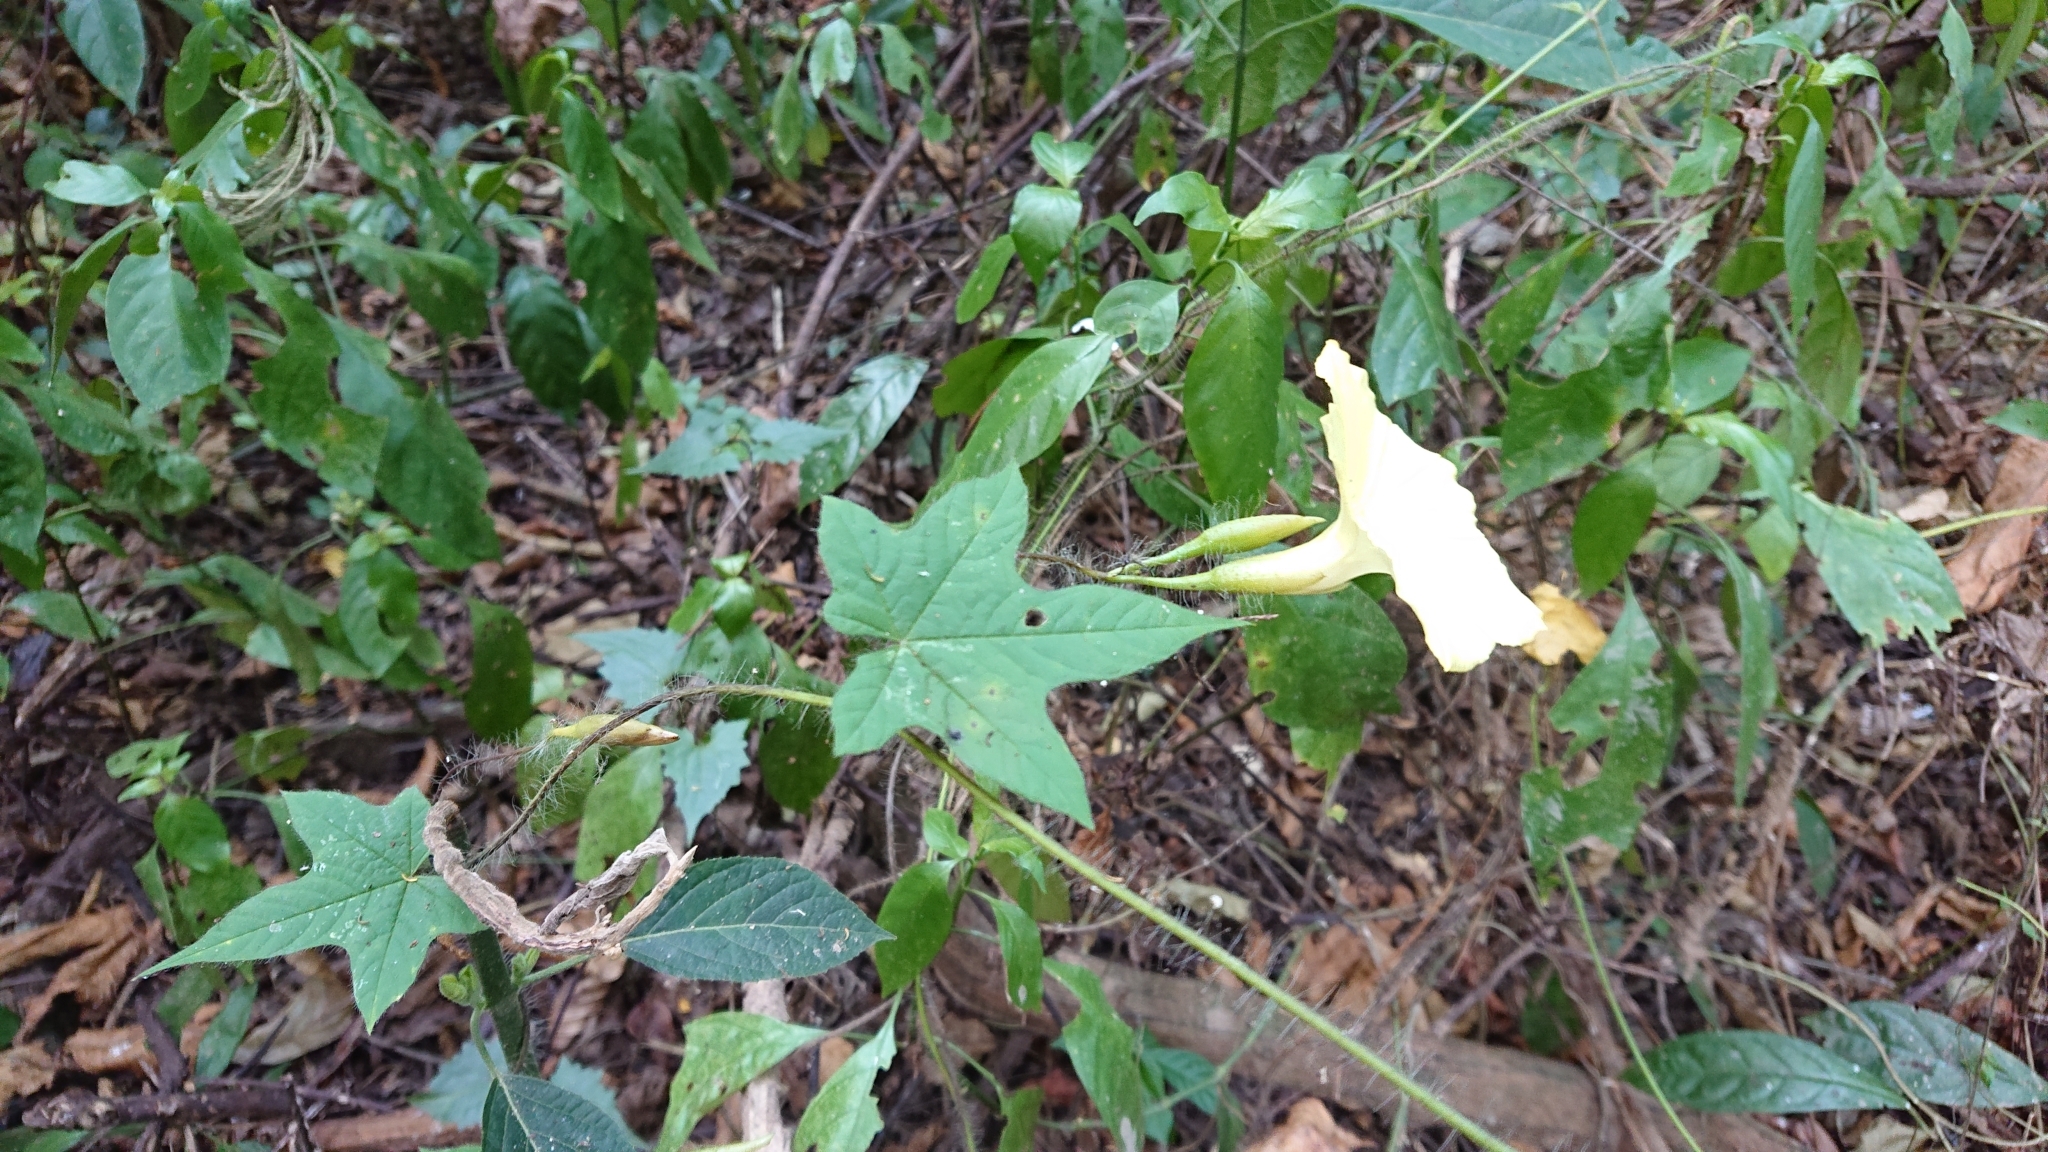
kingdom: Plantae
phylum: Tracheophyta
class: Magnoliopsida
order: Solanales
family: Convolvulaceae
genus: Distimake
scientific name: Distimake
